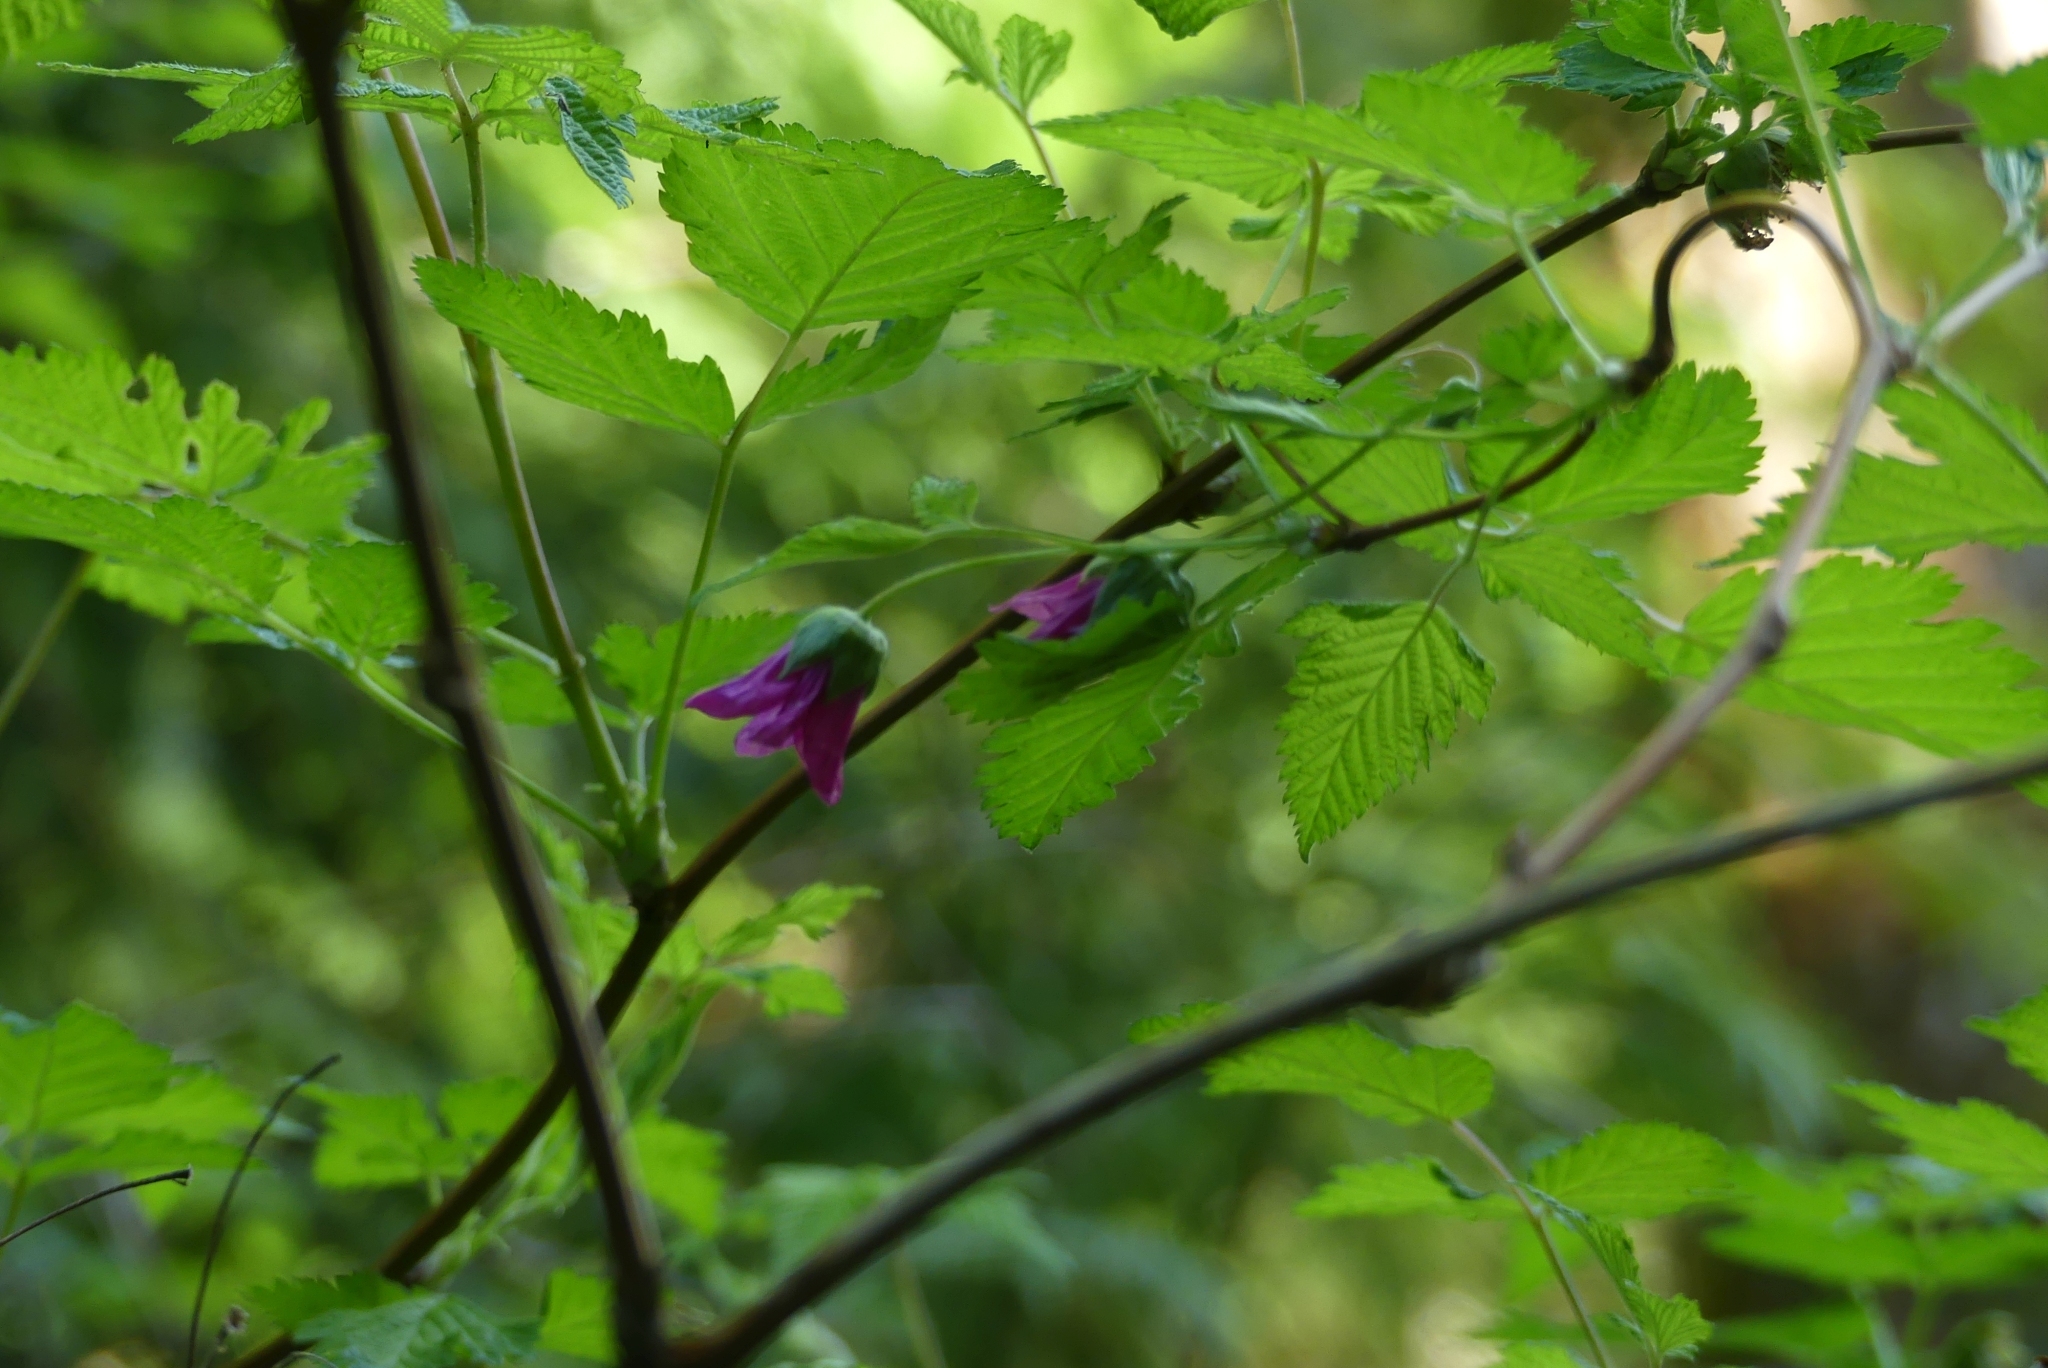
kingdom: Plantae
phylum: Tracheophyta
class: Magnoliopsida
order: Rosales
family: Rosaceae
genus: Rubus
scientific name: Rubus spectabilis
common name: Salmonberry
